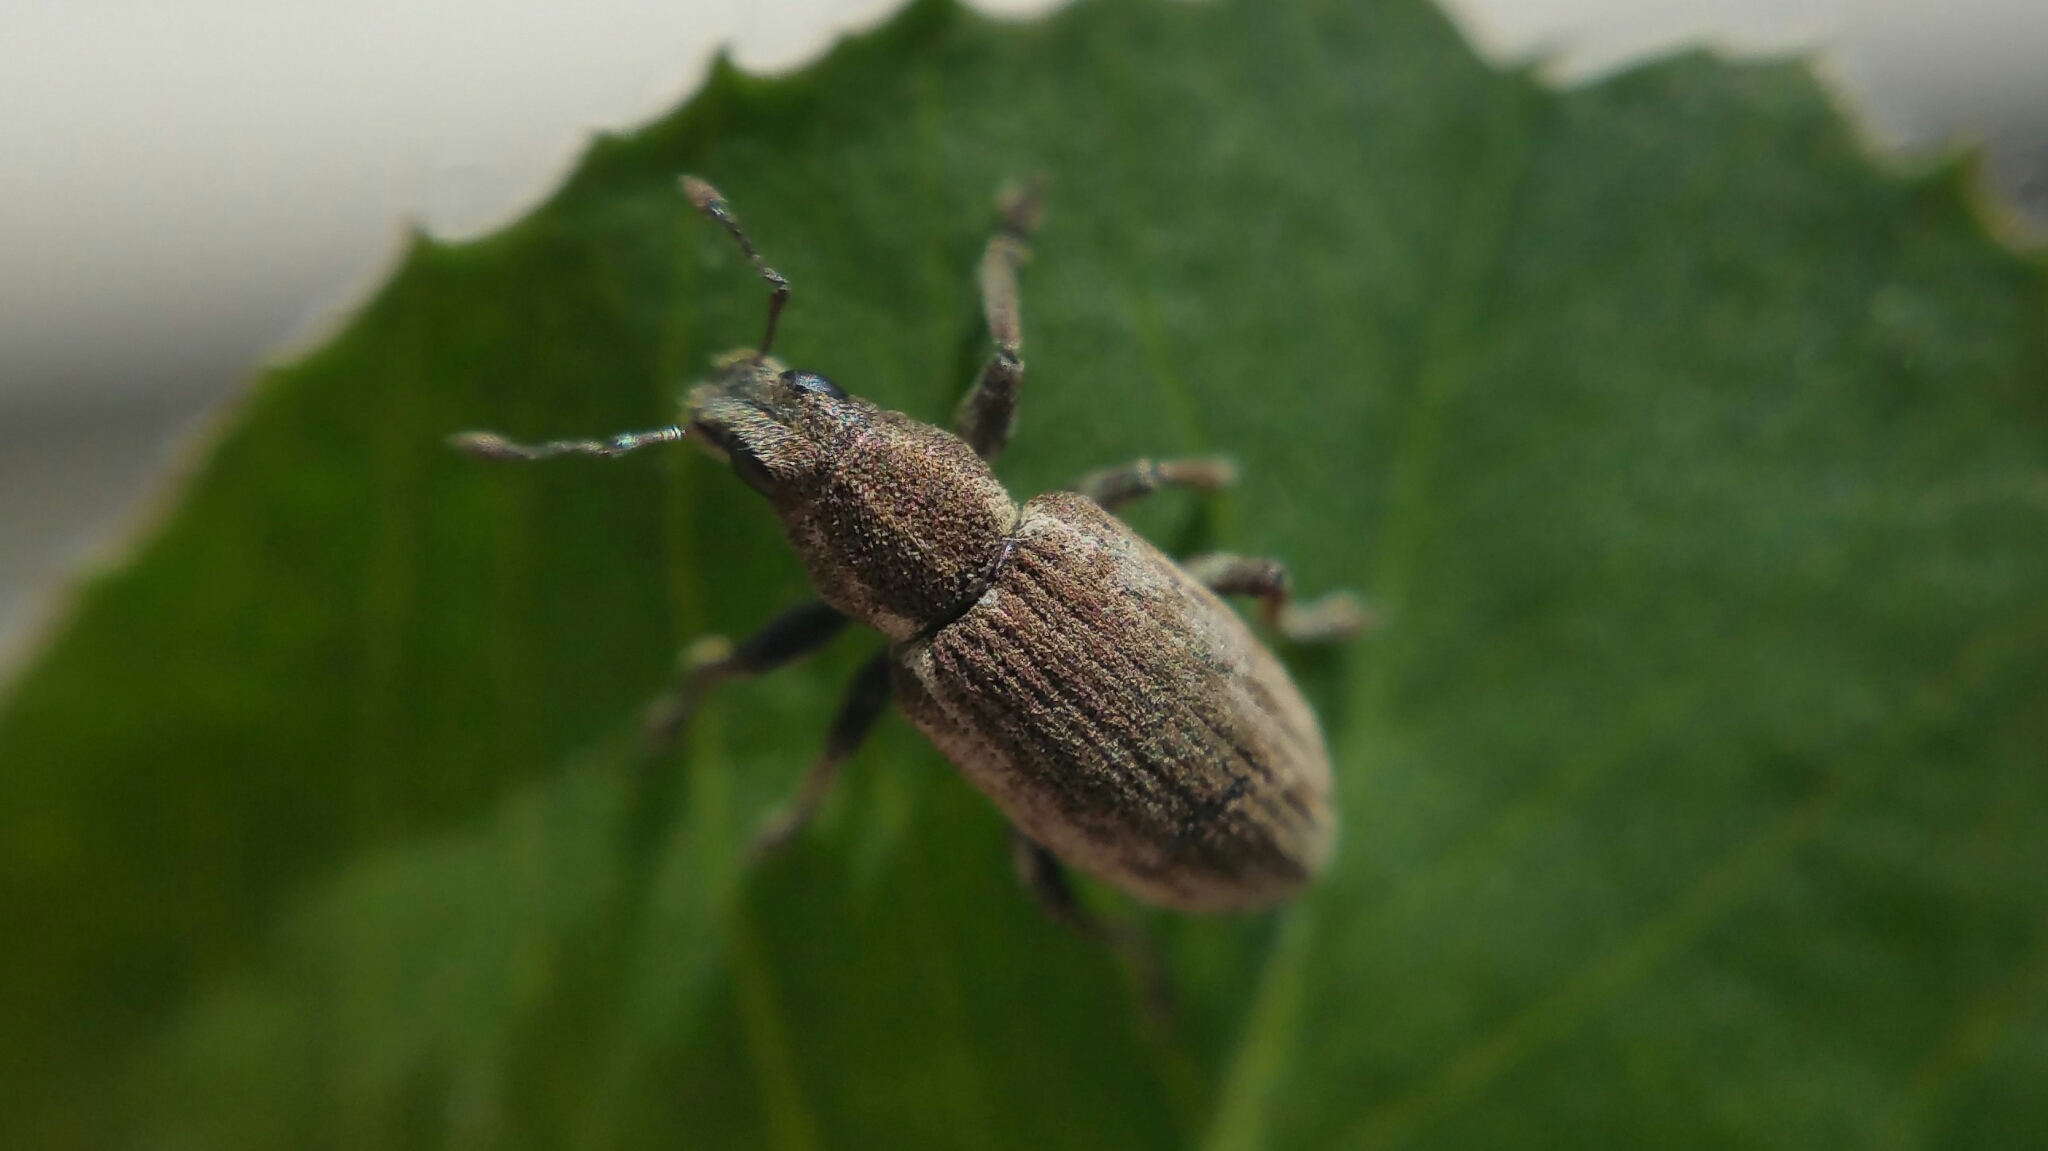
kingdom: Animalia
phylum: Arthropoda
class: Insecta
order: Coleoptera
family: Curculionidae
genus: Sitona
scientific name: Sitona humeralis
